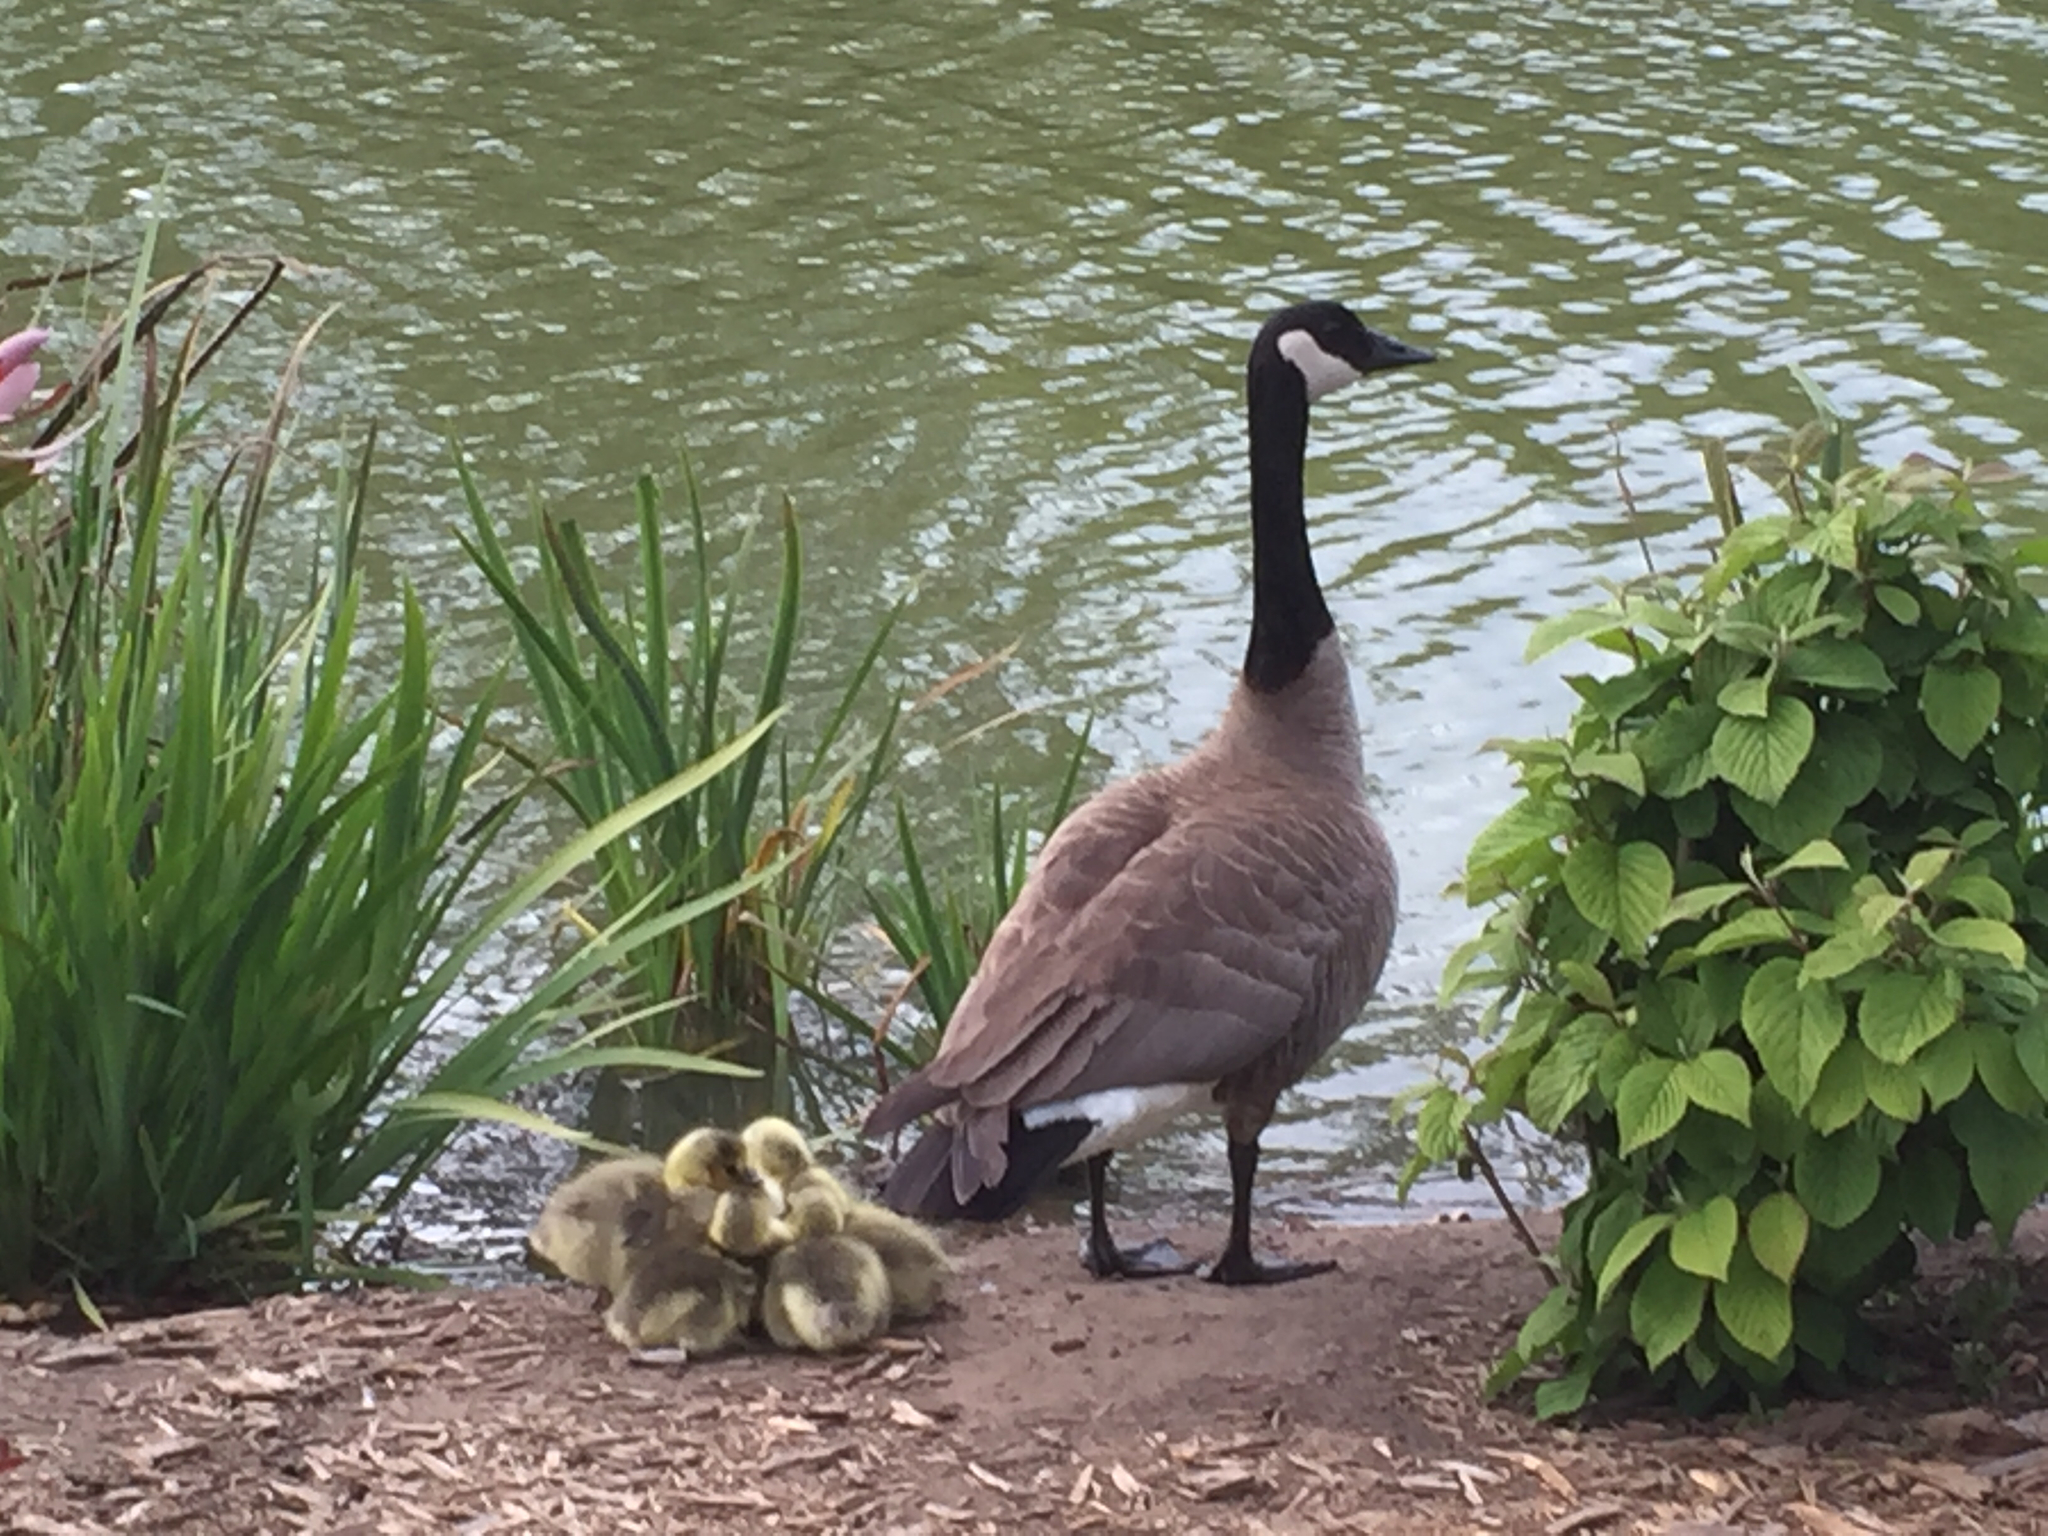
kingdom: Animalia
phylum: Chordata
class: Aves
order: Anseriformes
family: Anatidae
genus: Branta
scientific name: Branta canadensis
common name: Canada goose
